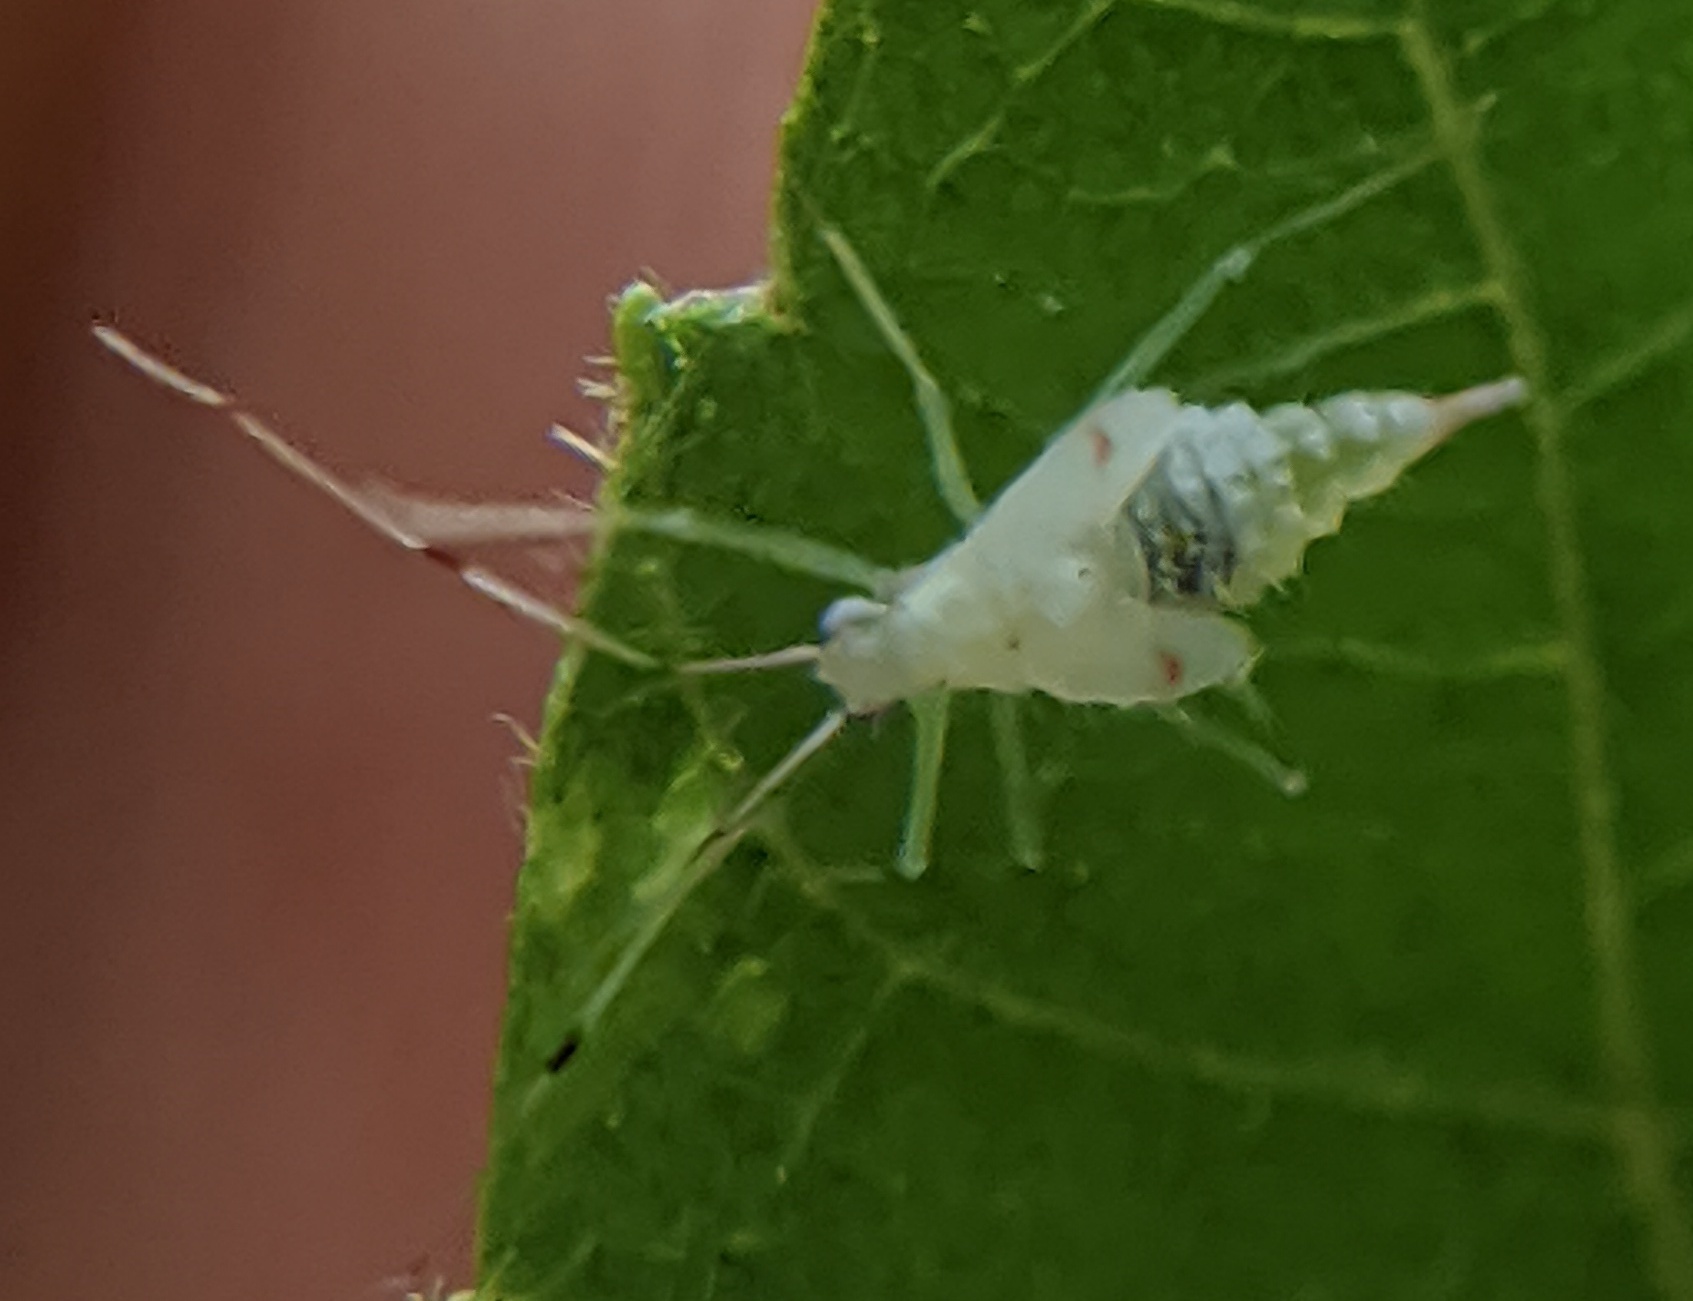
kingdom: Animalia
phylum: Arthropoda
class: Insecta
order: Hemiptera
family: Miridae
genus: Hyaliodes
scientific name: Hyaliodes harti
